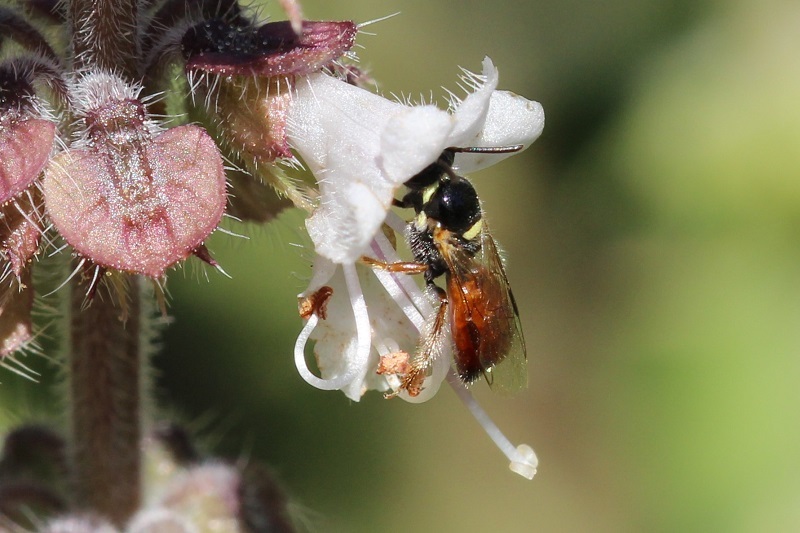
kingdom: Animalia
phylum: Arthropoda
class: Insecta
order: Hymenoptera
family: Apidae
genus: Allodapula
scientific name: Allodapula variegata
